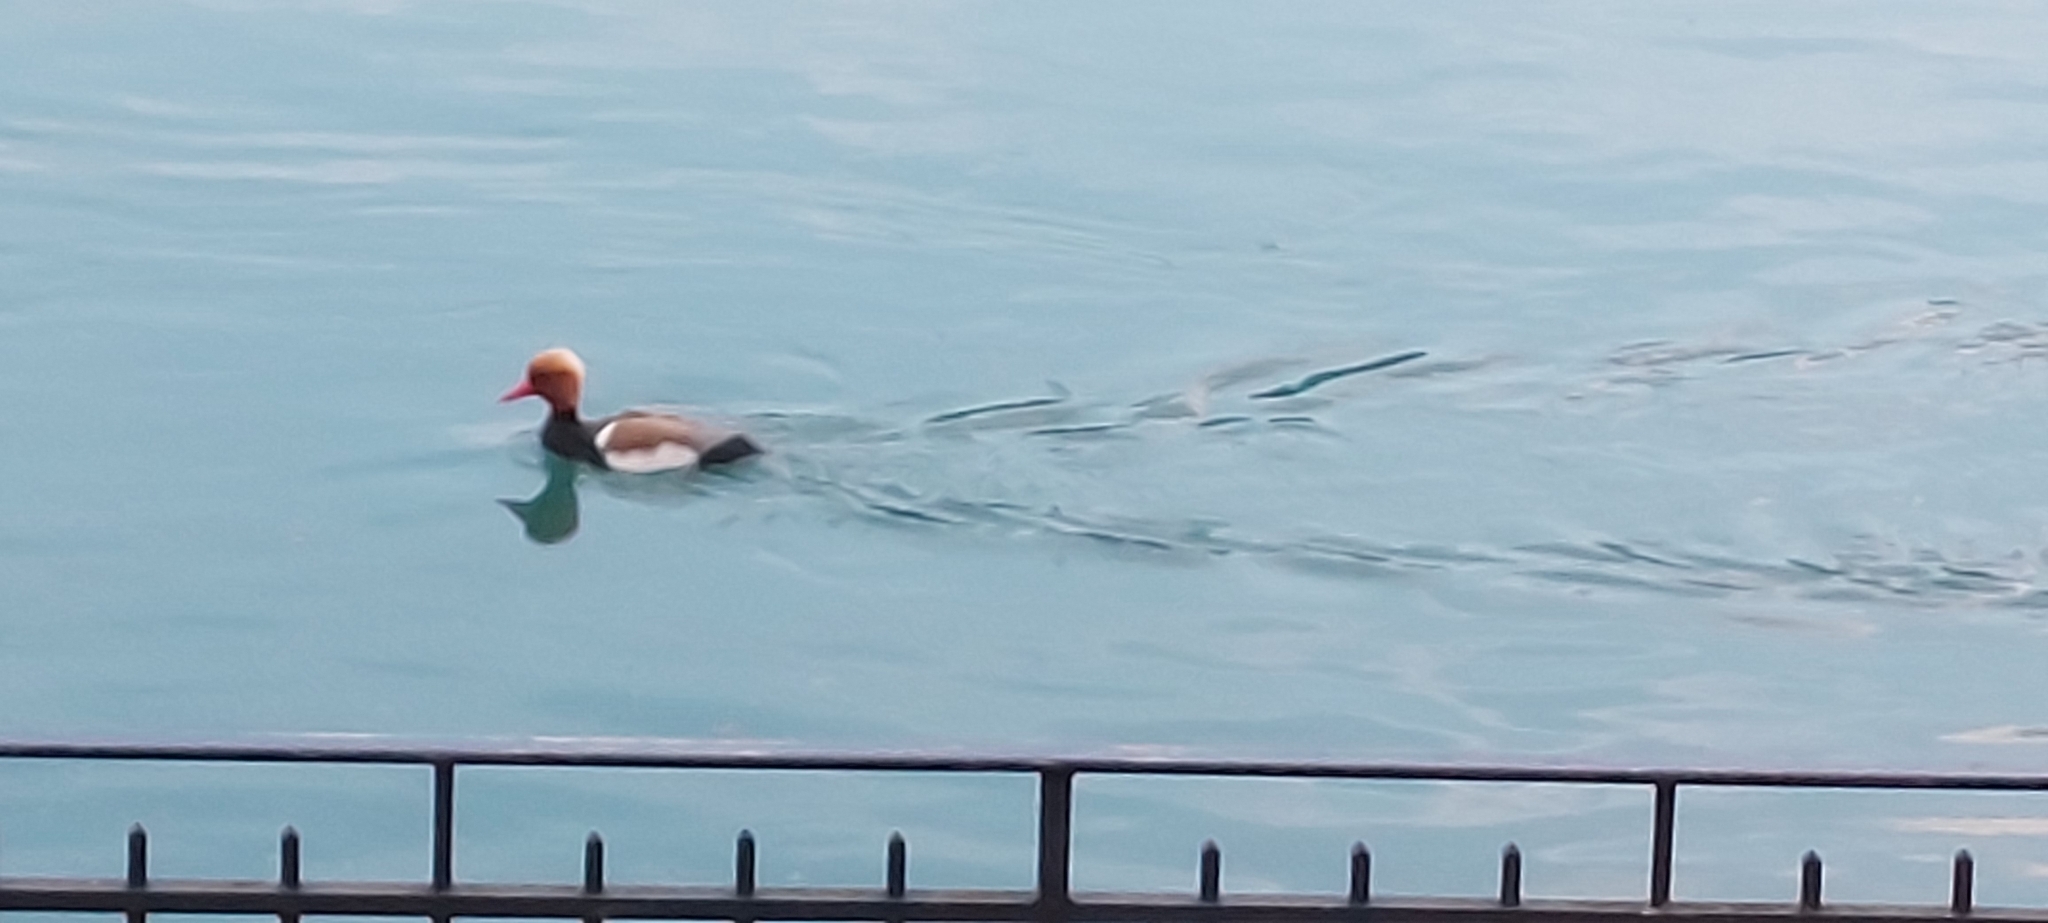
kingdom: Animalia
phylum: Chordata
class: Aves
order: Anseriformes
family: Anatidae
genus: Netta
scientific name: Netta rufina
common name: Red-crested pochard
